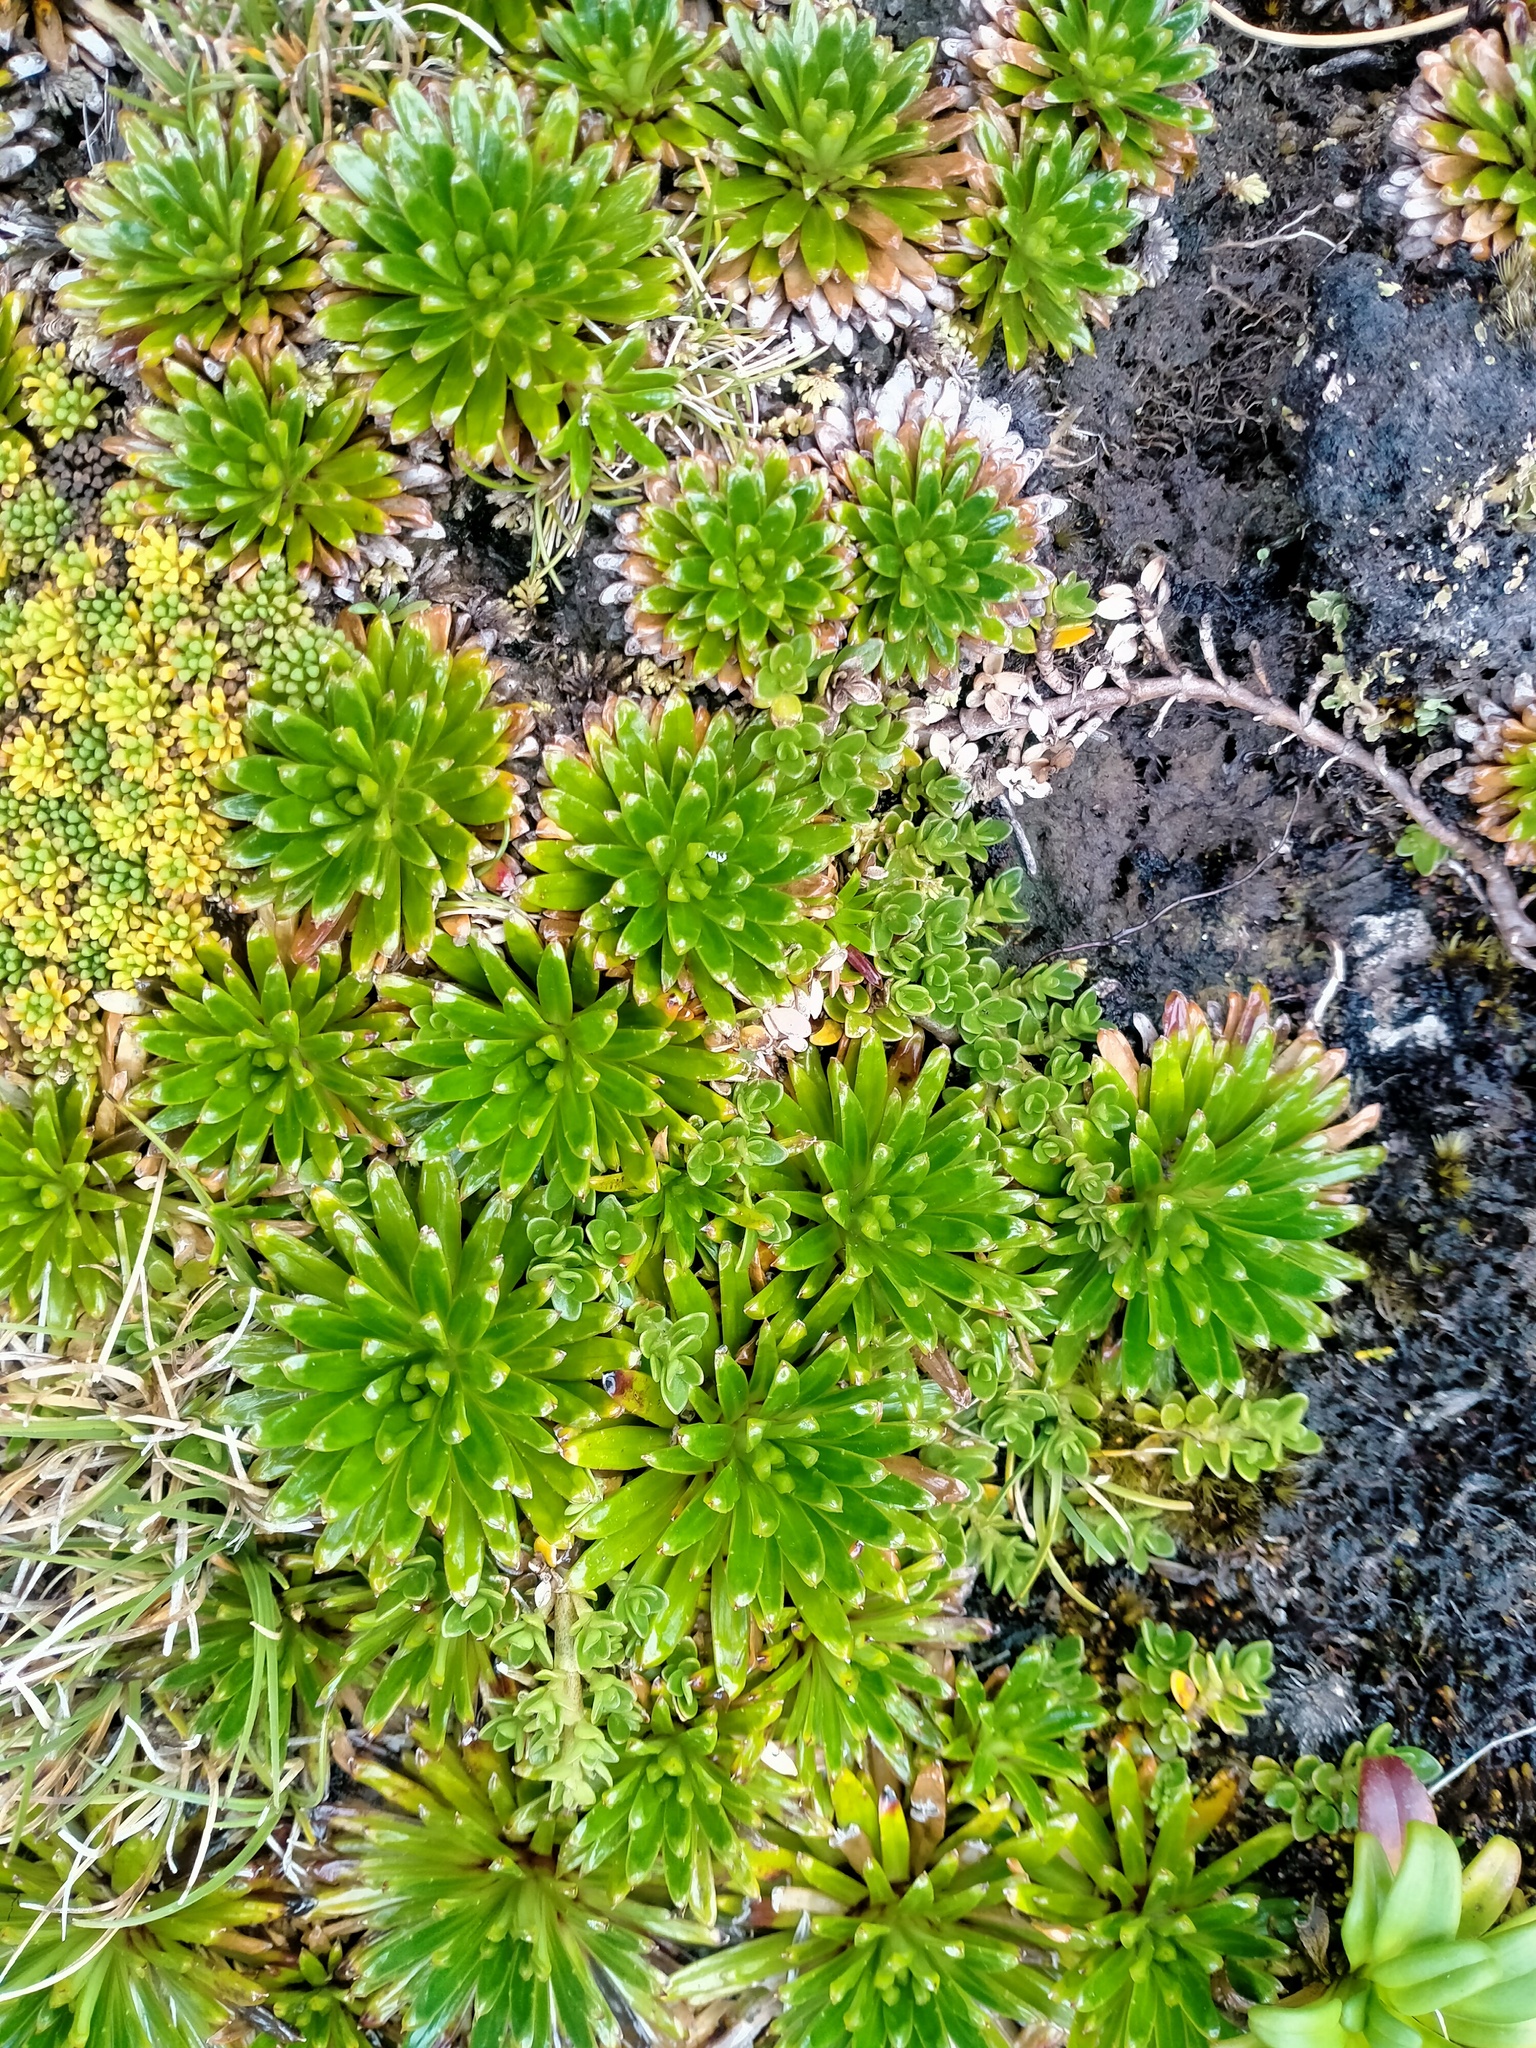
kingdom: Plantae
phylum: Tracheophyta
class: Magnoliopsida
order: Asterales
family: Asteraceae
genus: Damnamenia
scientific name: Damnamenia vernicosa
